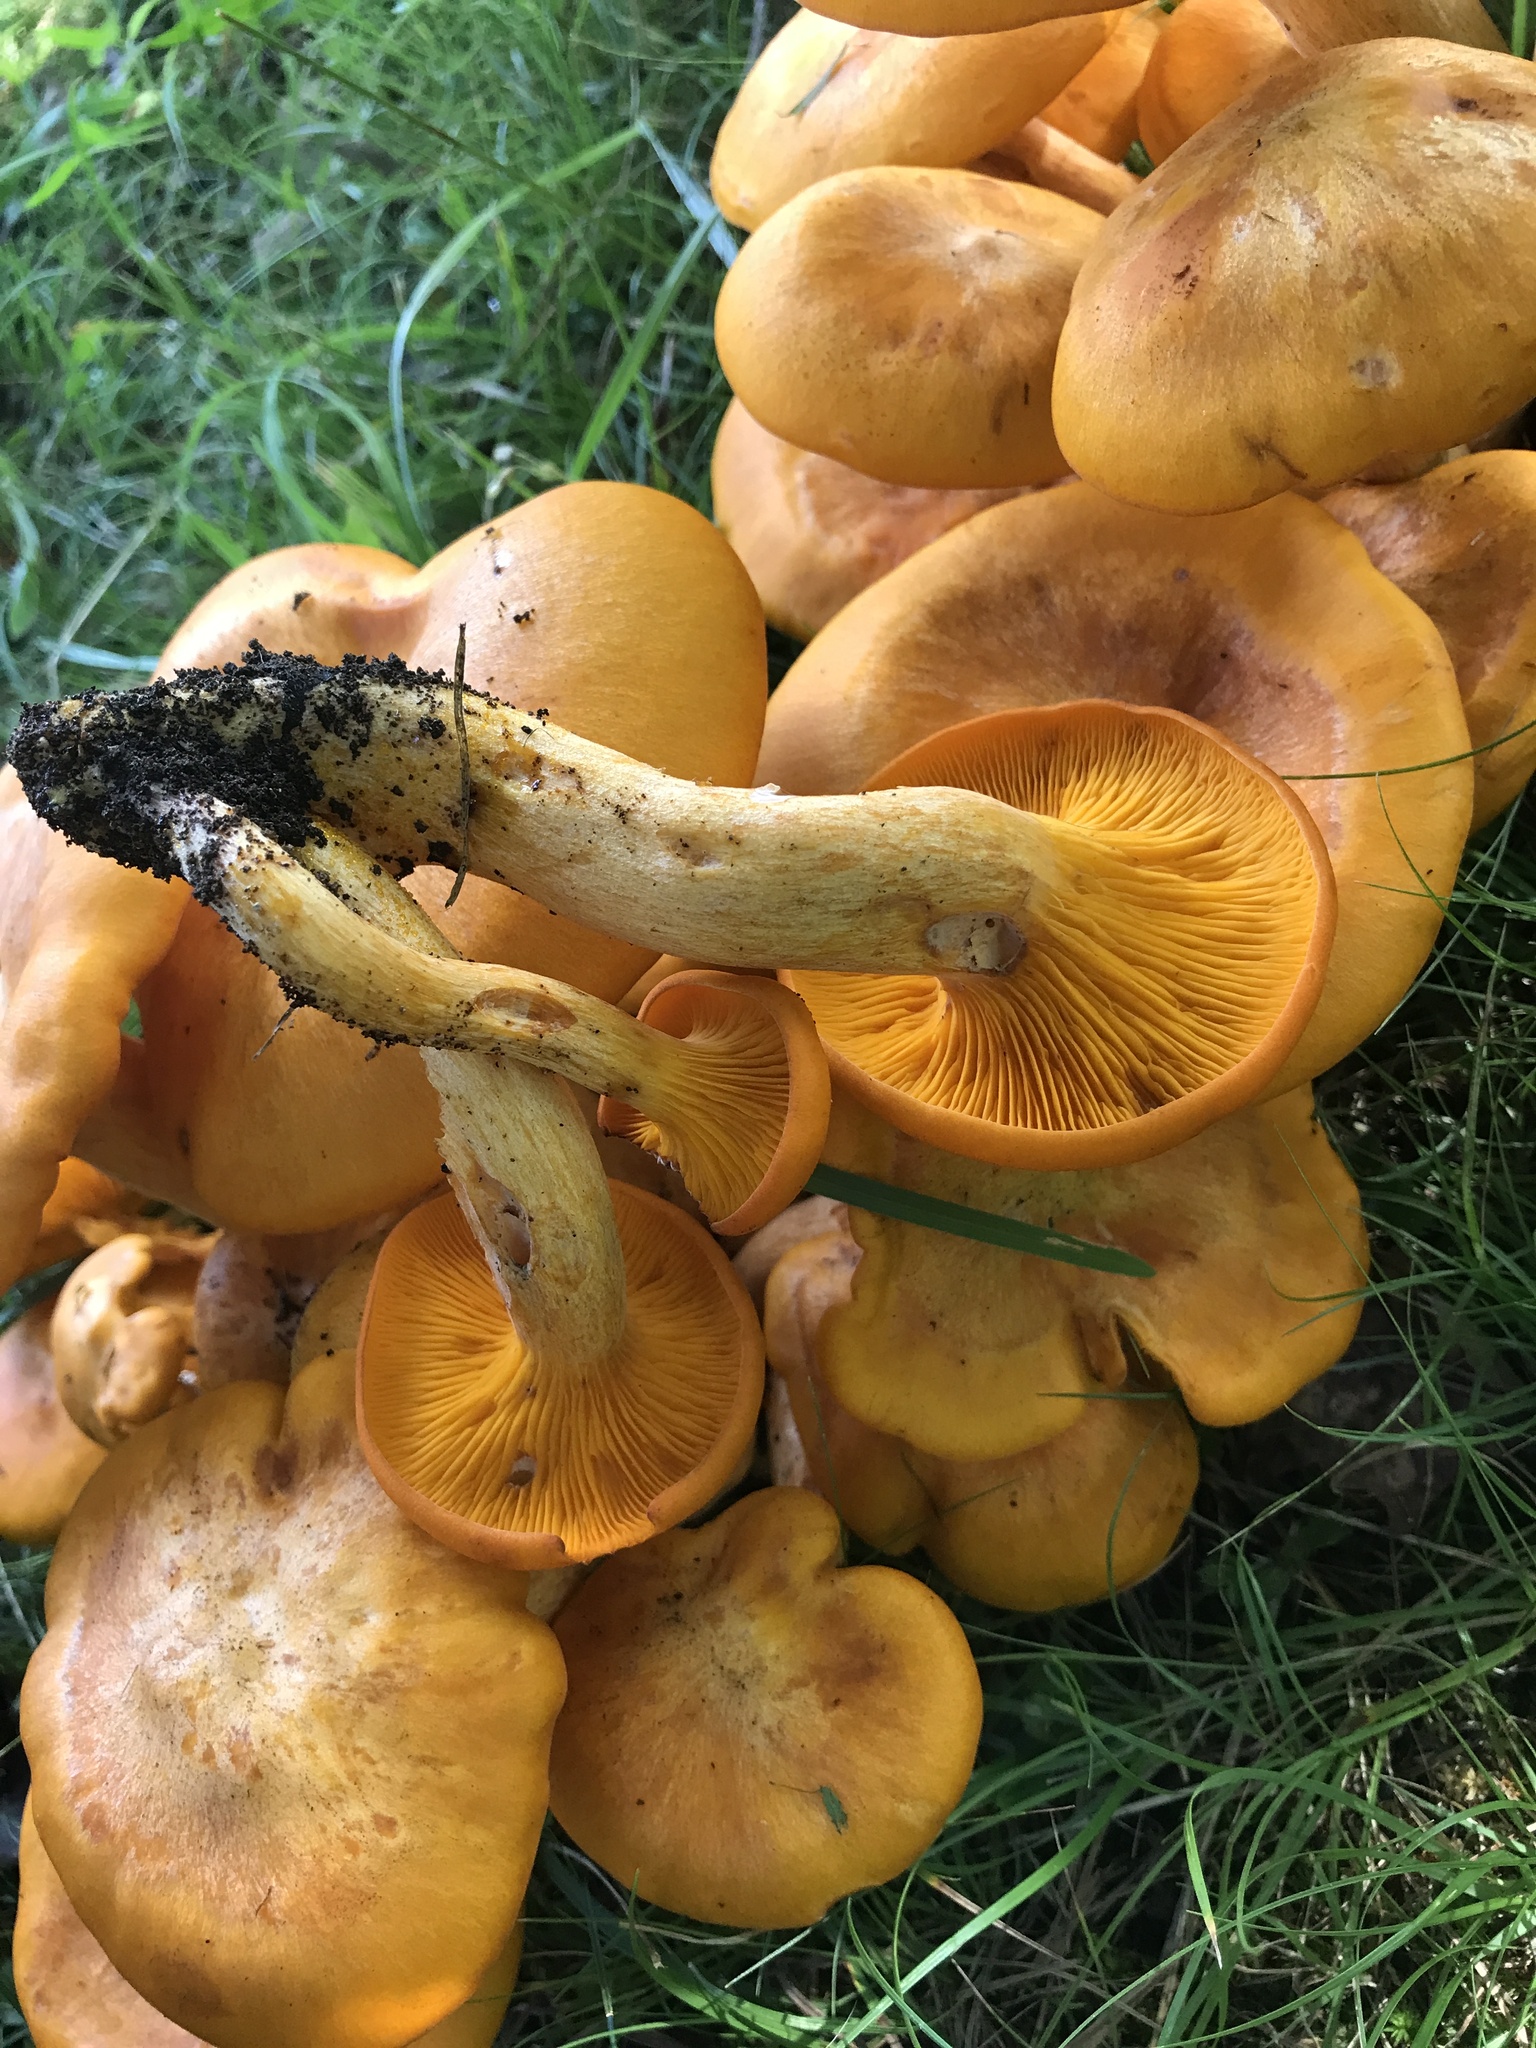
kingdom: Fungi
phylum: Basidiomycota
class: Agaricomycetes
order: Agaricales
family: Omphalotaceae
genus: Omphalotus
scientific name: Omphalotus illudens
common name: Jack o lantern
